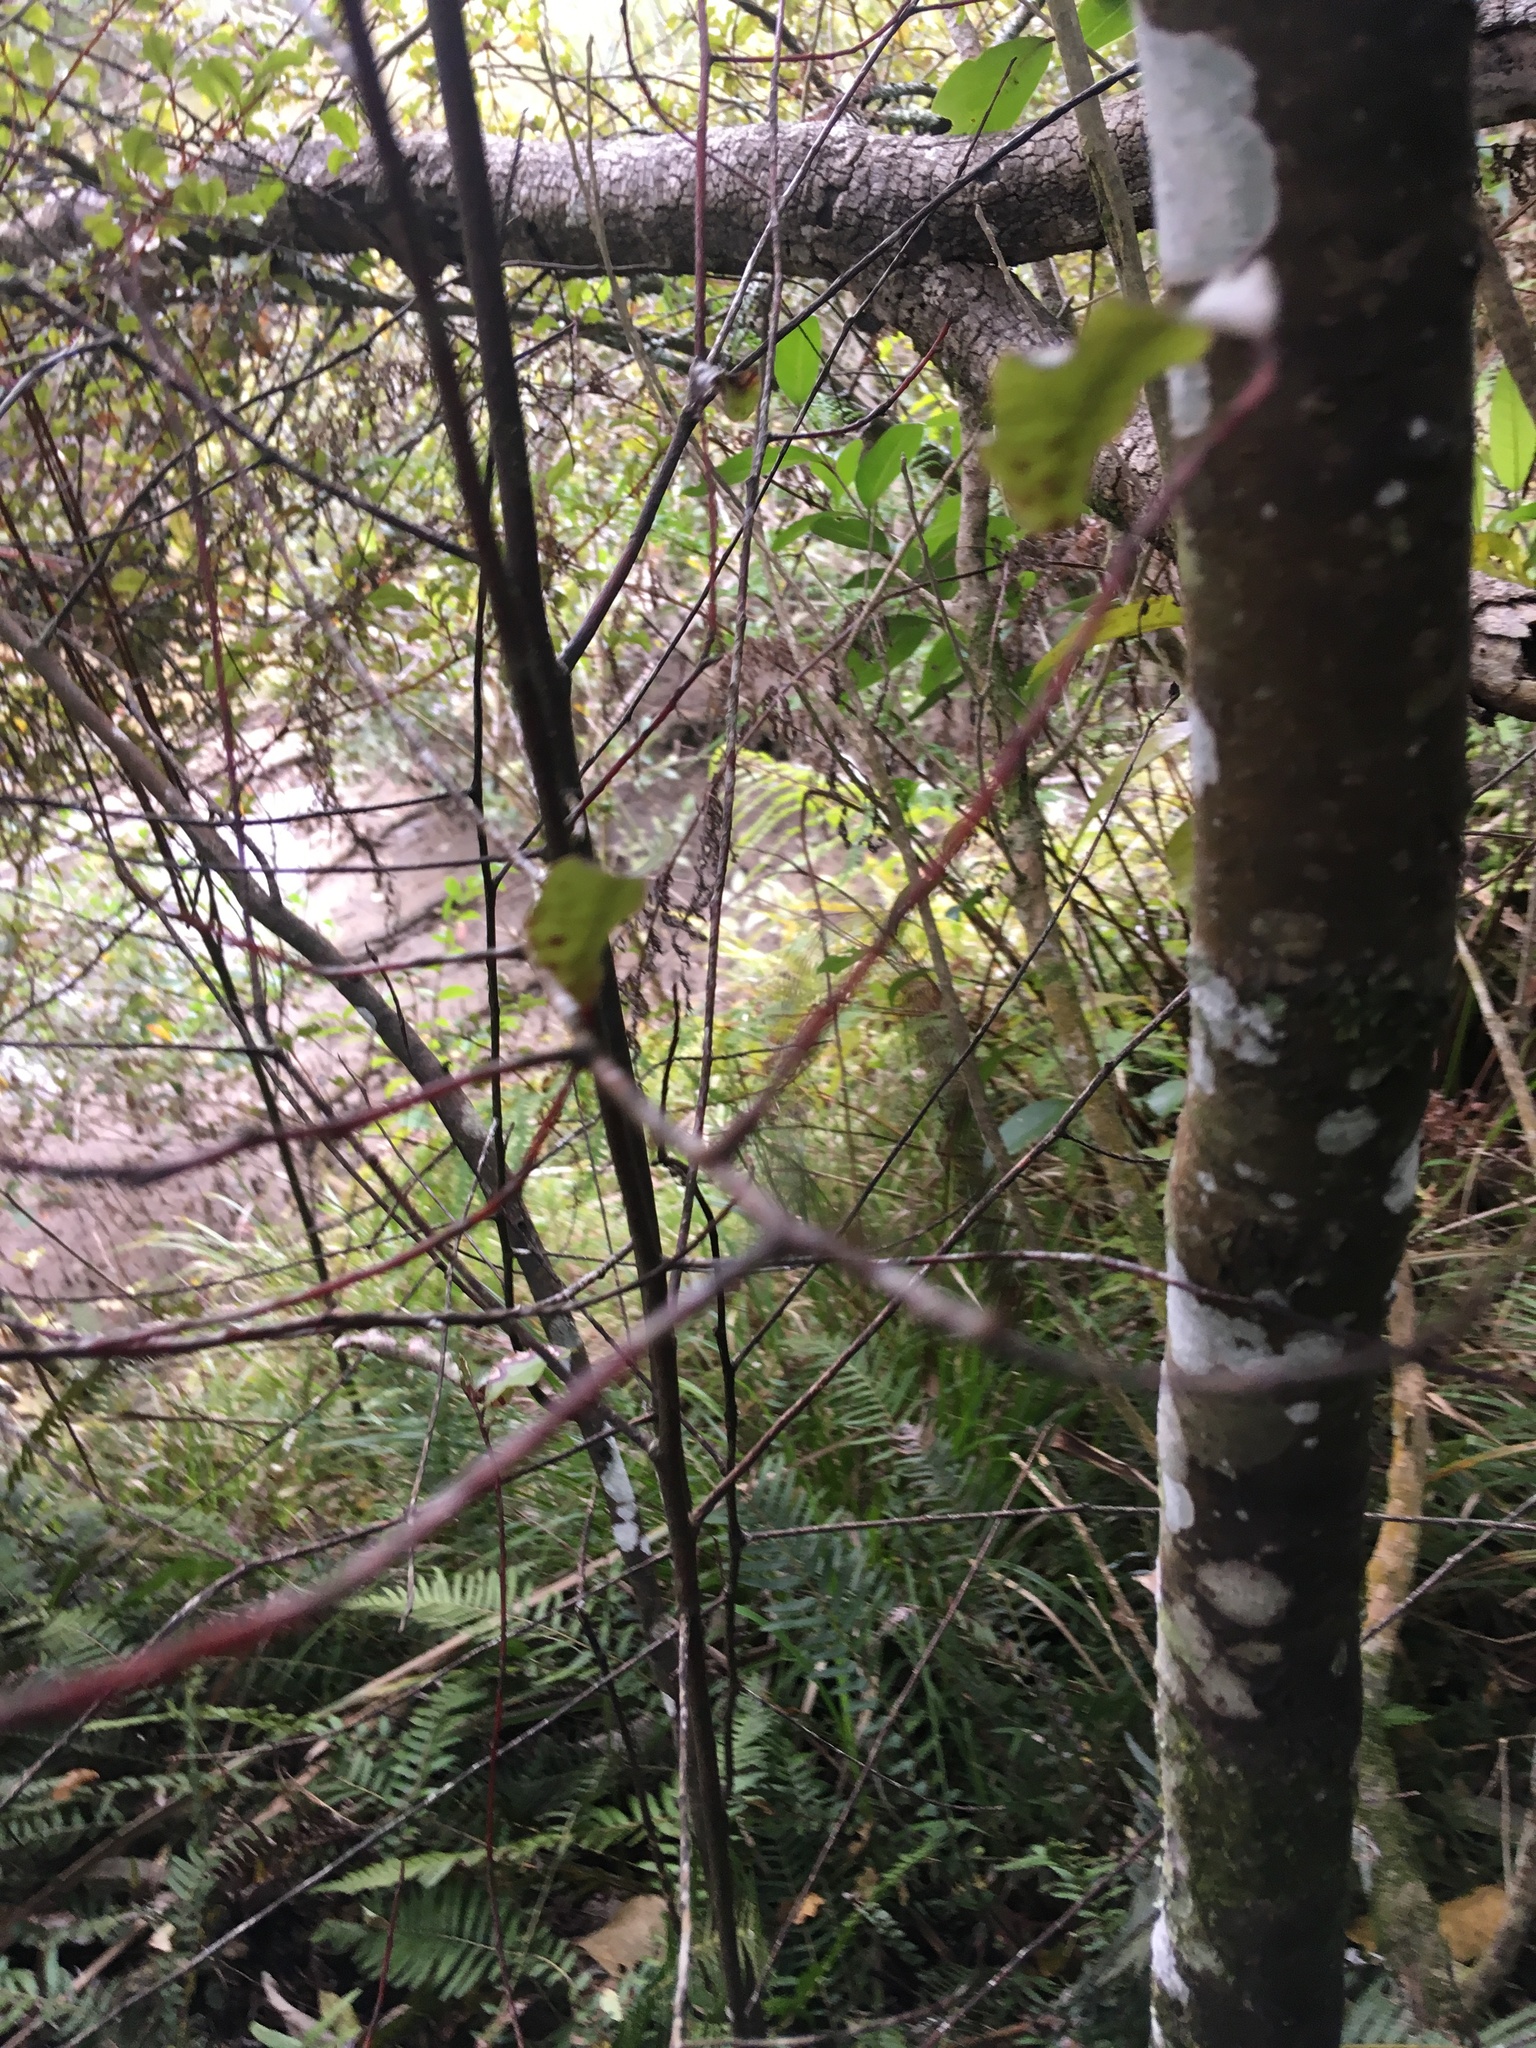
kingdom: Plantae
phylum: Tracheophyta
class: Polypodiopsida
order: Polypodiales
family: Blechnaceae
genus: Doodia
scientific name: Doodia australis
